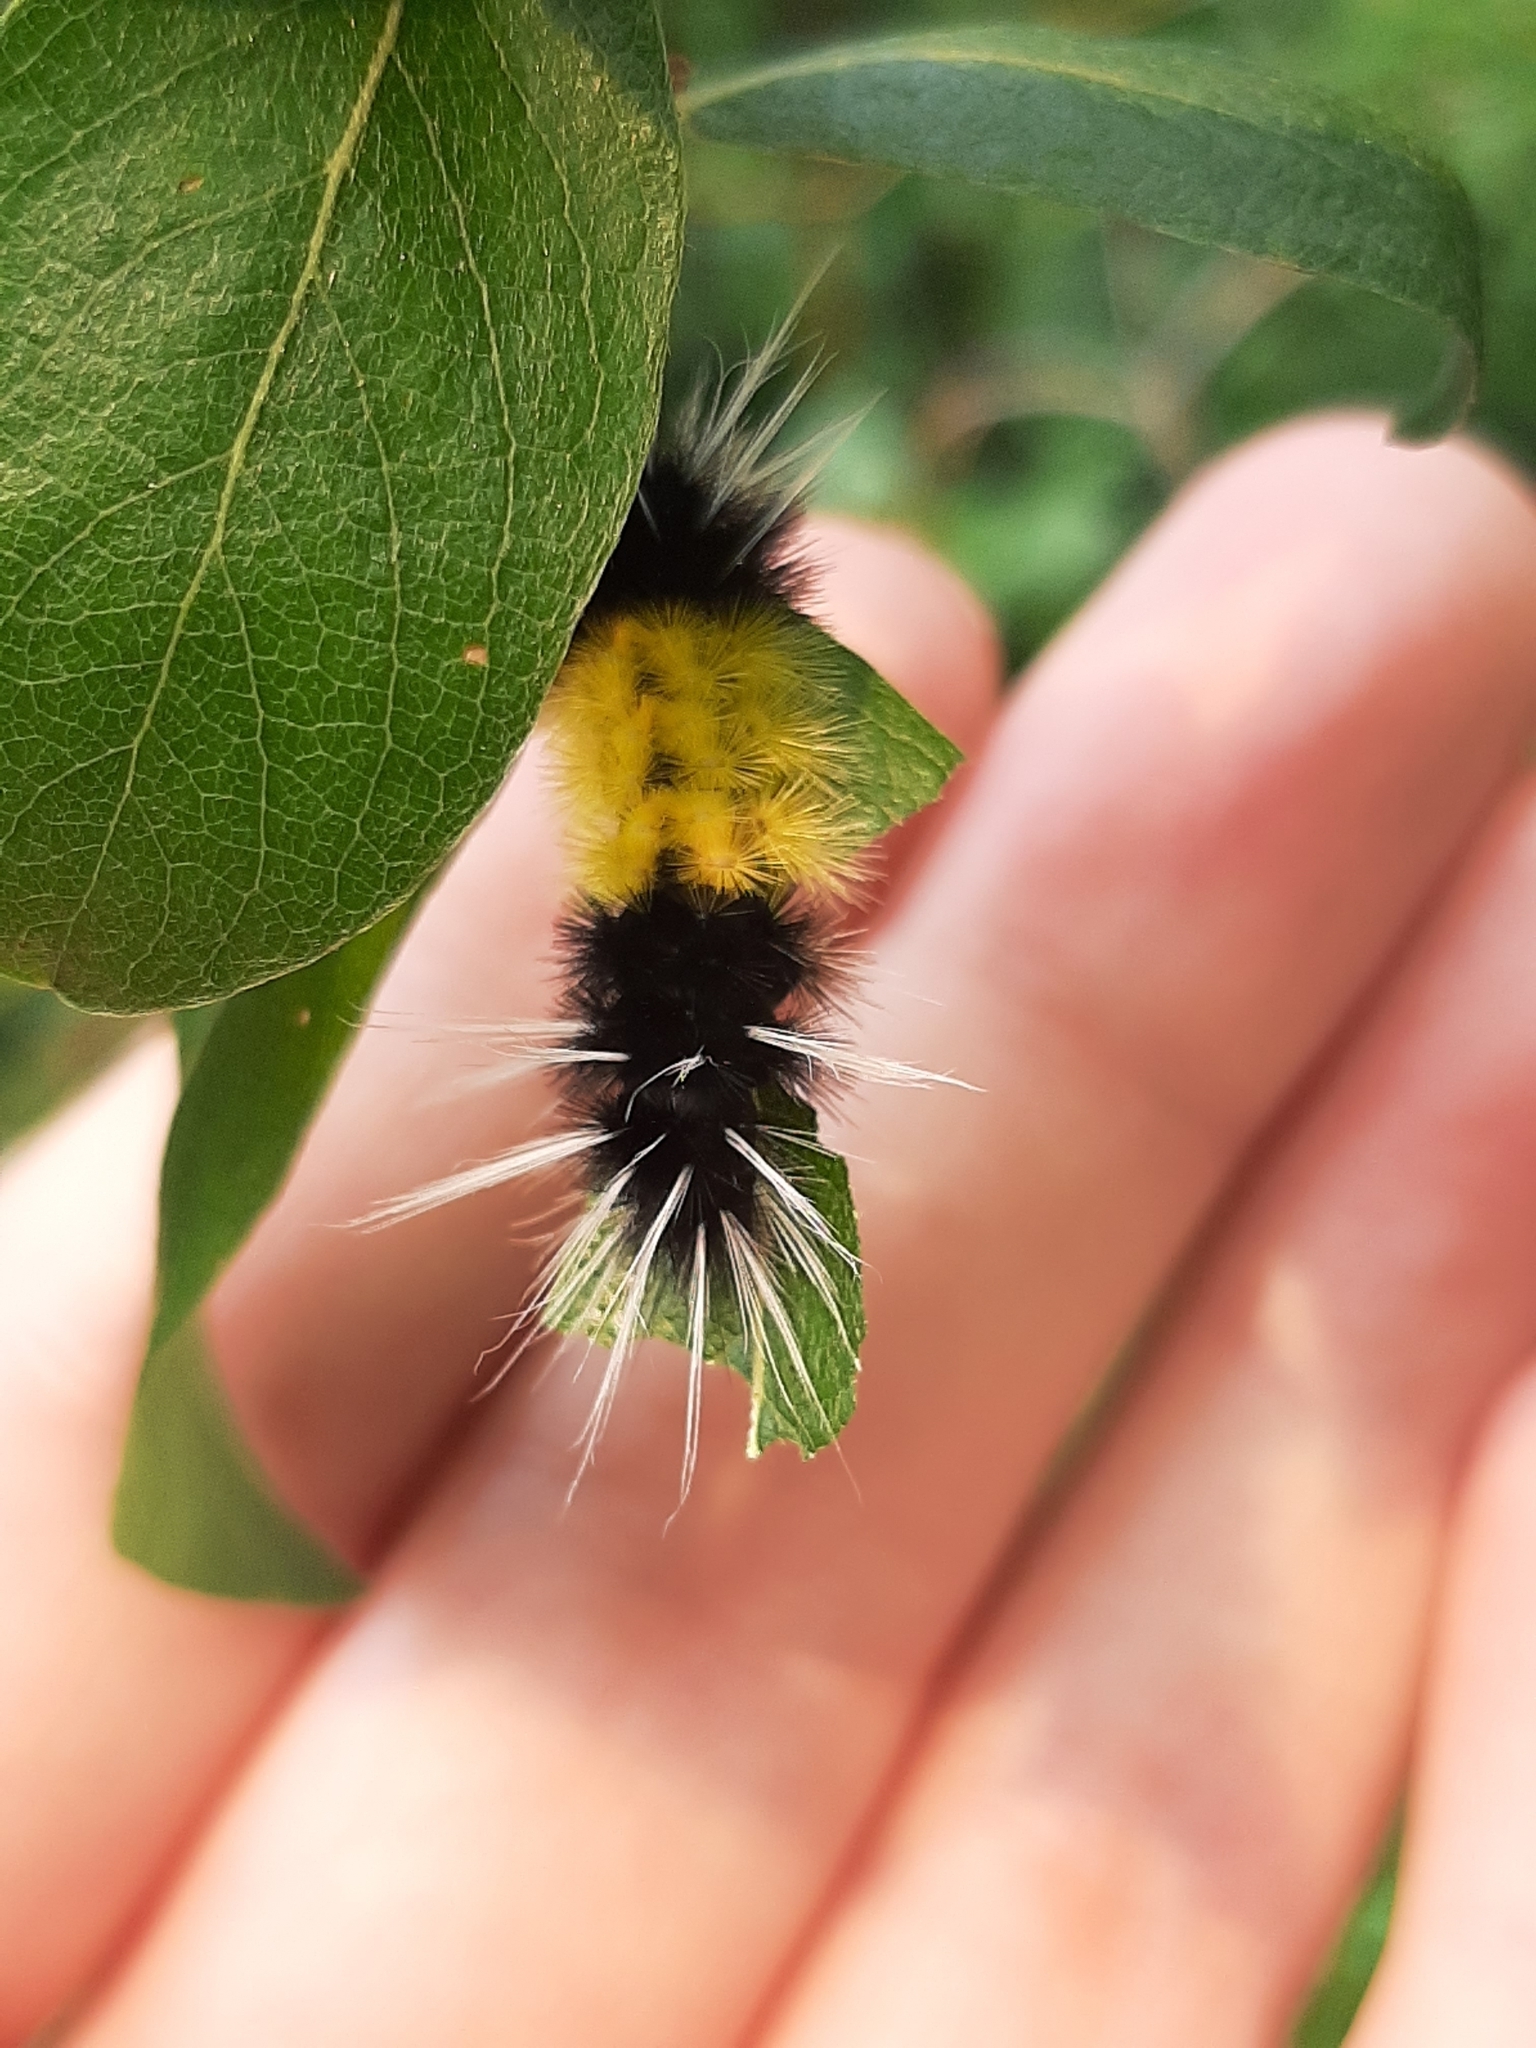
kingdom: Animalia
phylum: Arthropoda
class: Insecta
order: Lepidoptera
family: Erebidae
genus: Lophocampa
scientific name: Lophocampa maculata
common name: Spotted tussock moth
